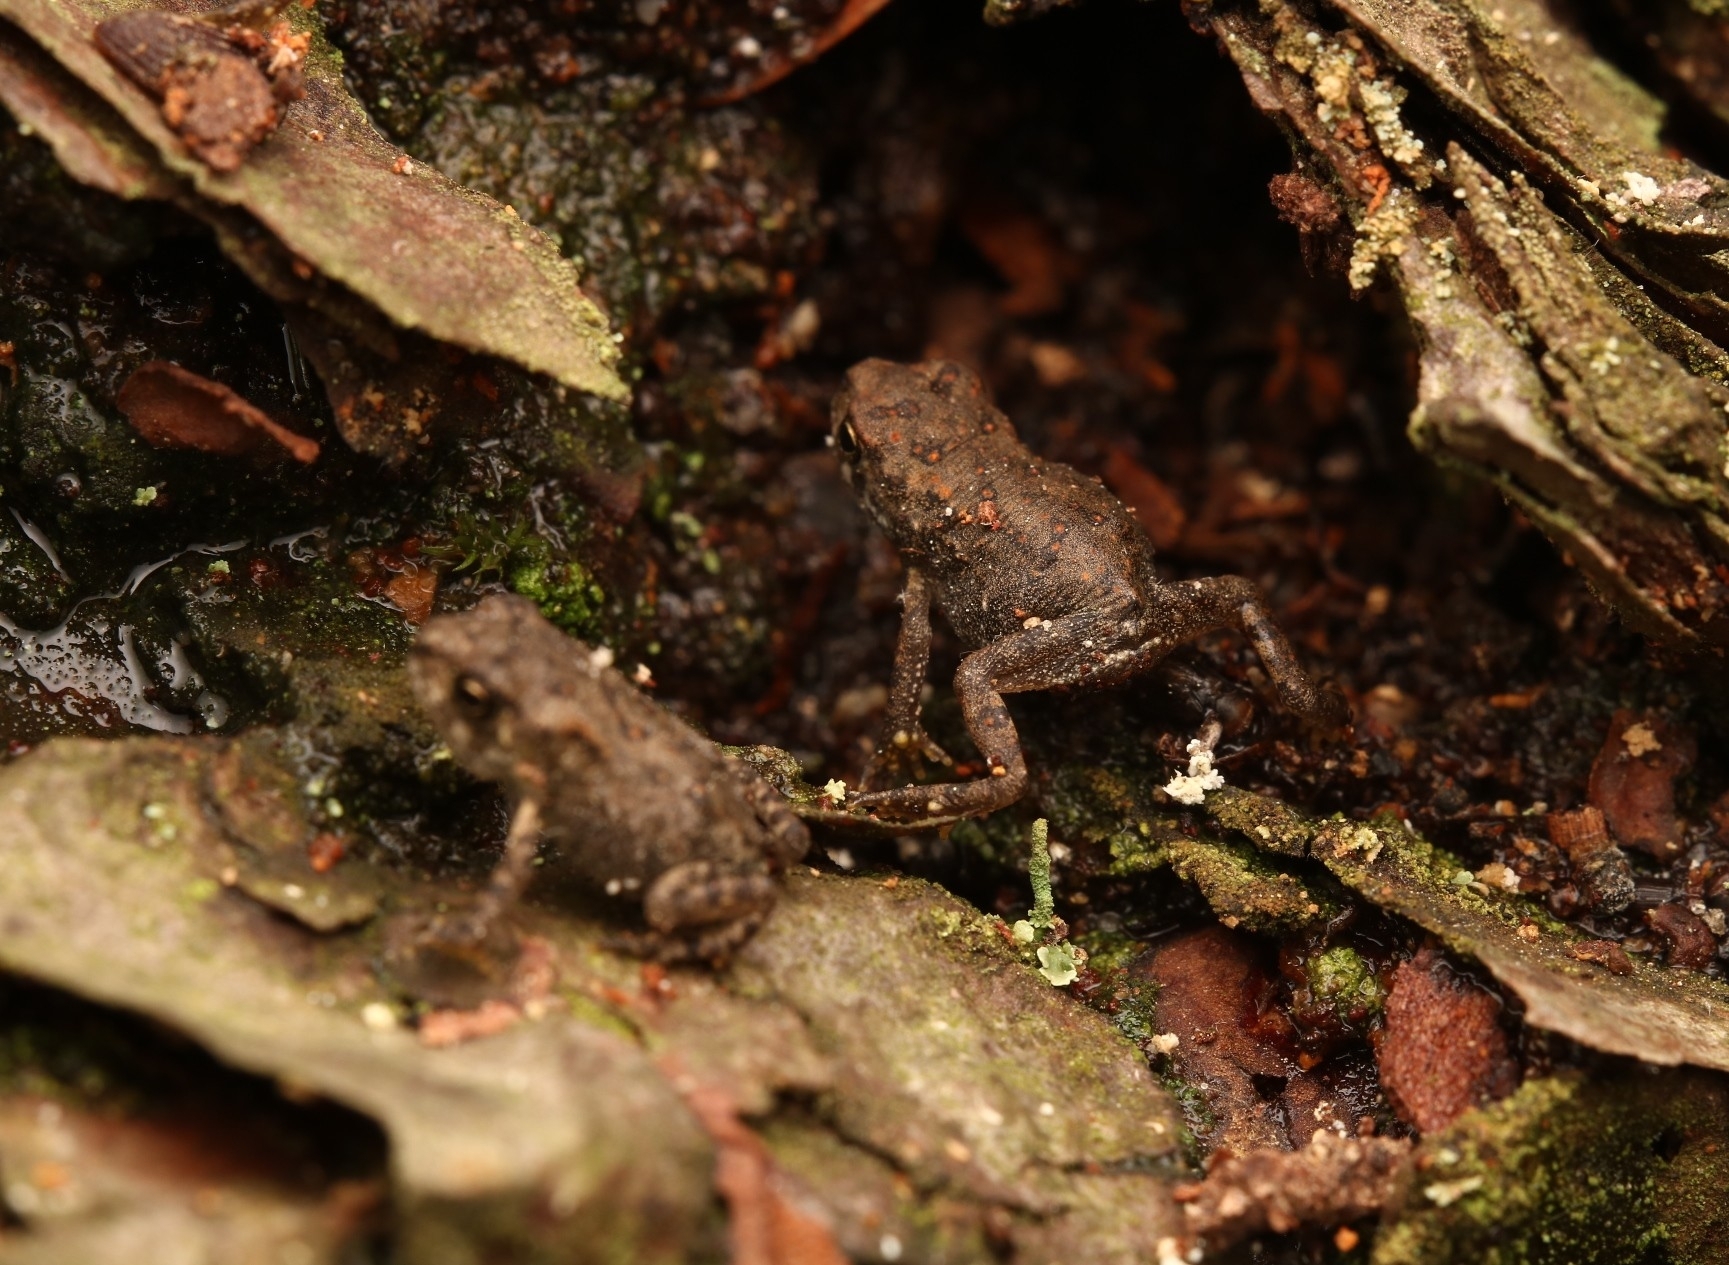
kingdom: Animalia
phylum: Chordata
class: Amphibia
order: Anura
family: Bufonidae
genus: Anaxyrus
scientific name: Anaxyrus americanus
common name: American toad
